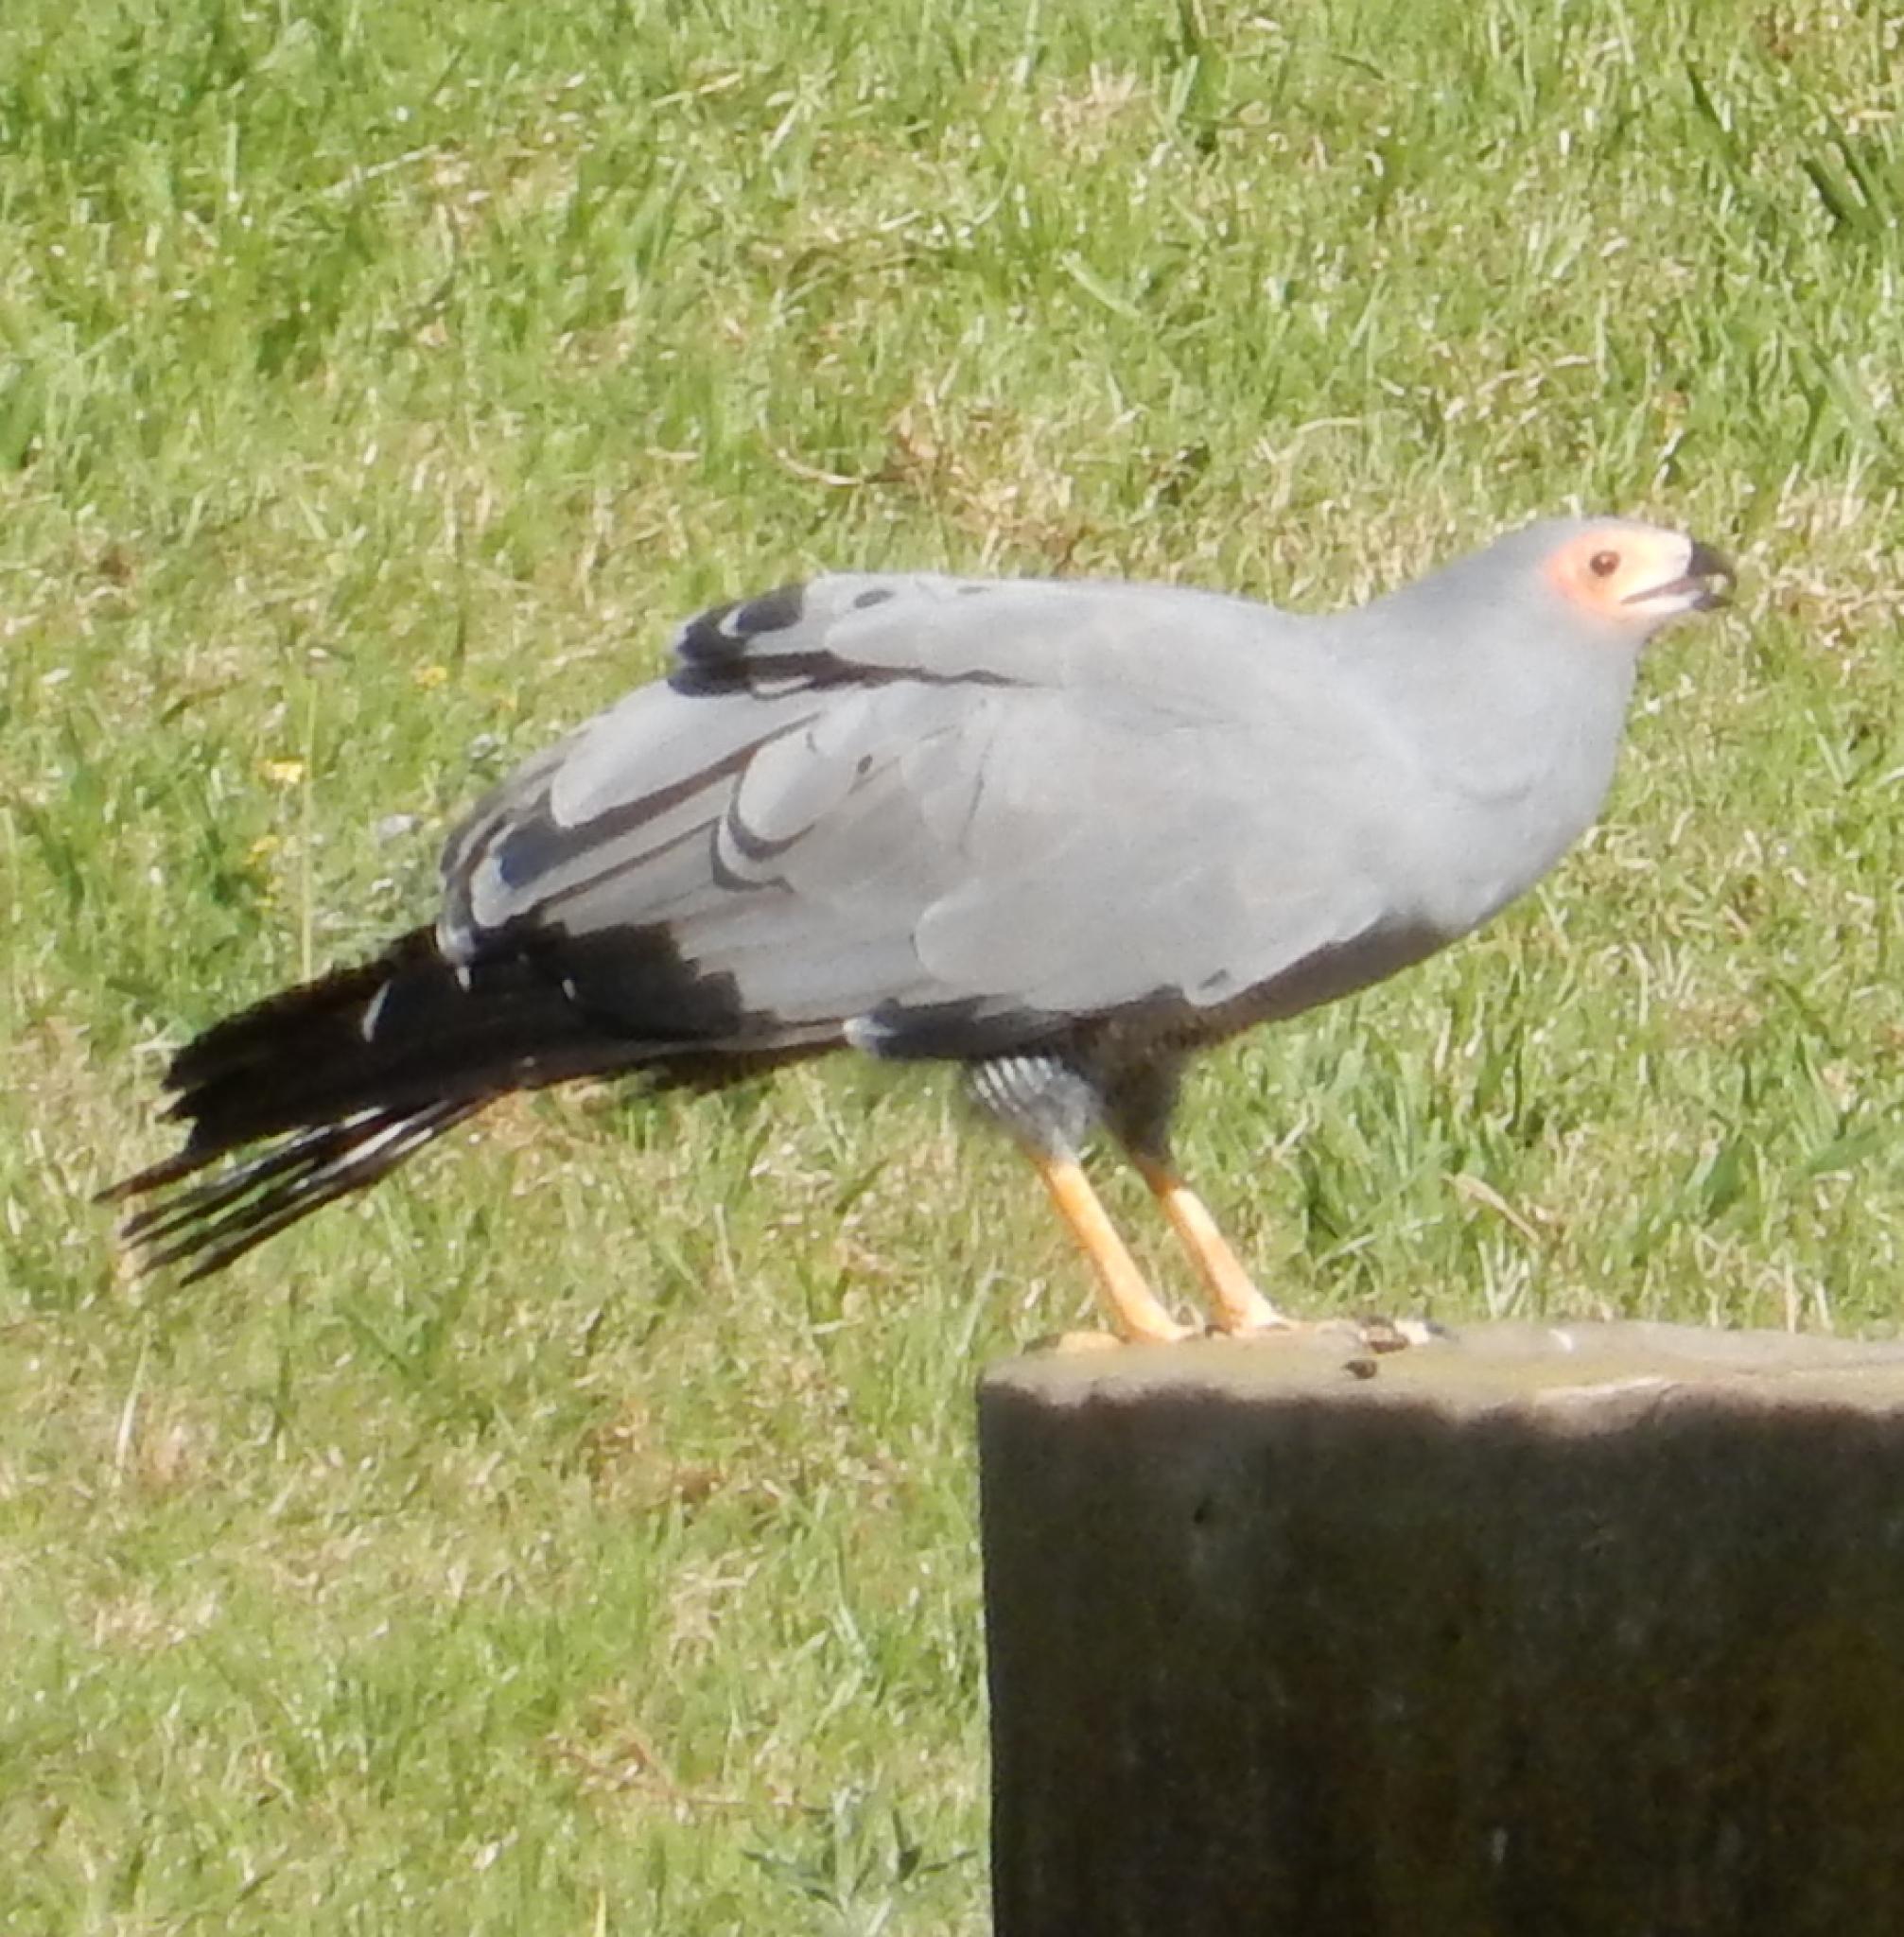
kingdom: Animalia
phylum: Chordata
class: Aves
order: Accipitriformes
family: Accipitridae
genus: Polyboroides
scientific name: Polyboroides typus
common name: African harrier-hawk
